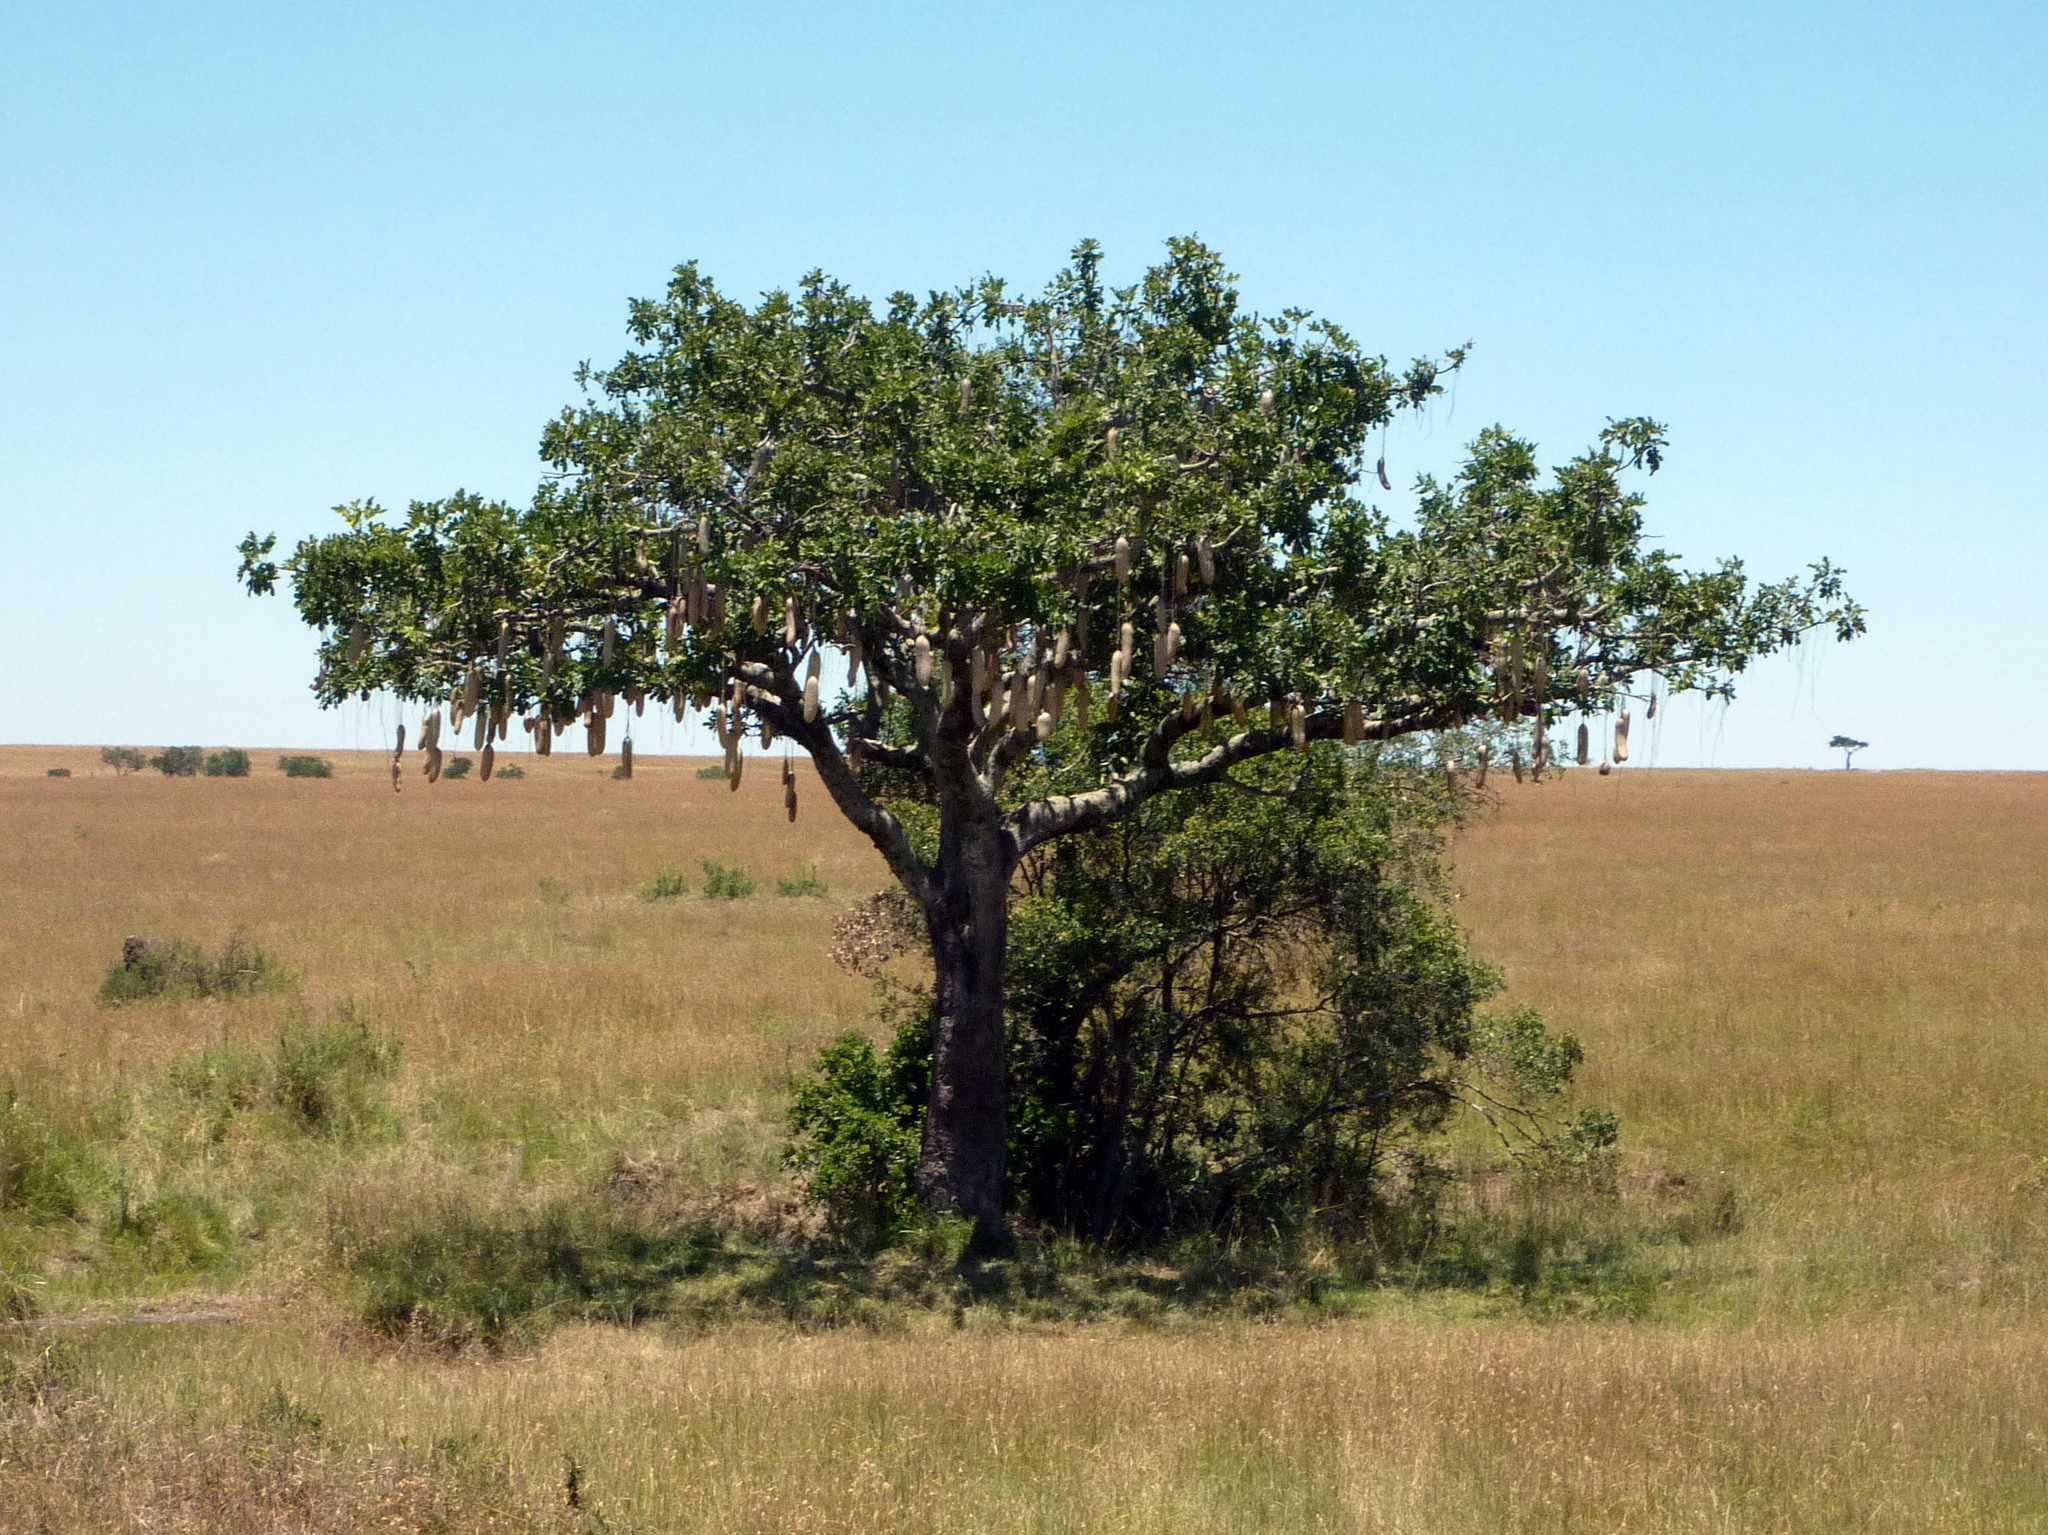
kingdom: Plantae
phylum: Tracheophyta
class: Magnoliopsida
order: Lamiales
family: Bignoniaceae
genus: Kigelia
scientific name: Kigelia africana
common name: Sausage tree
